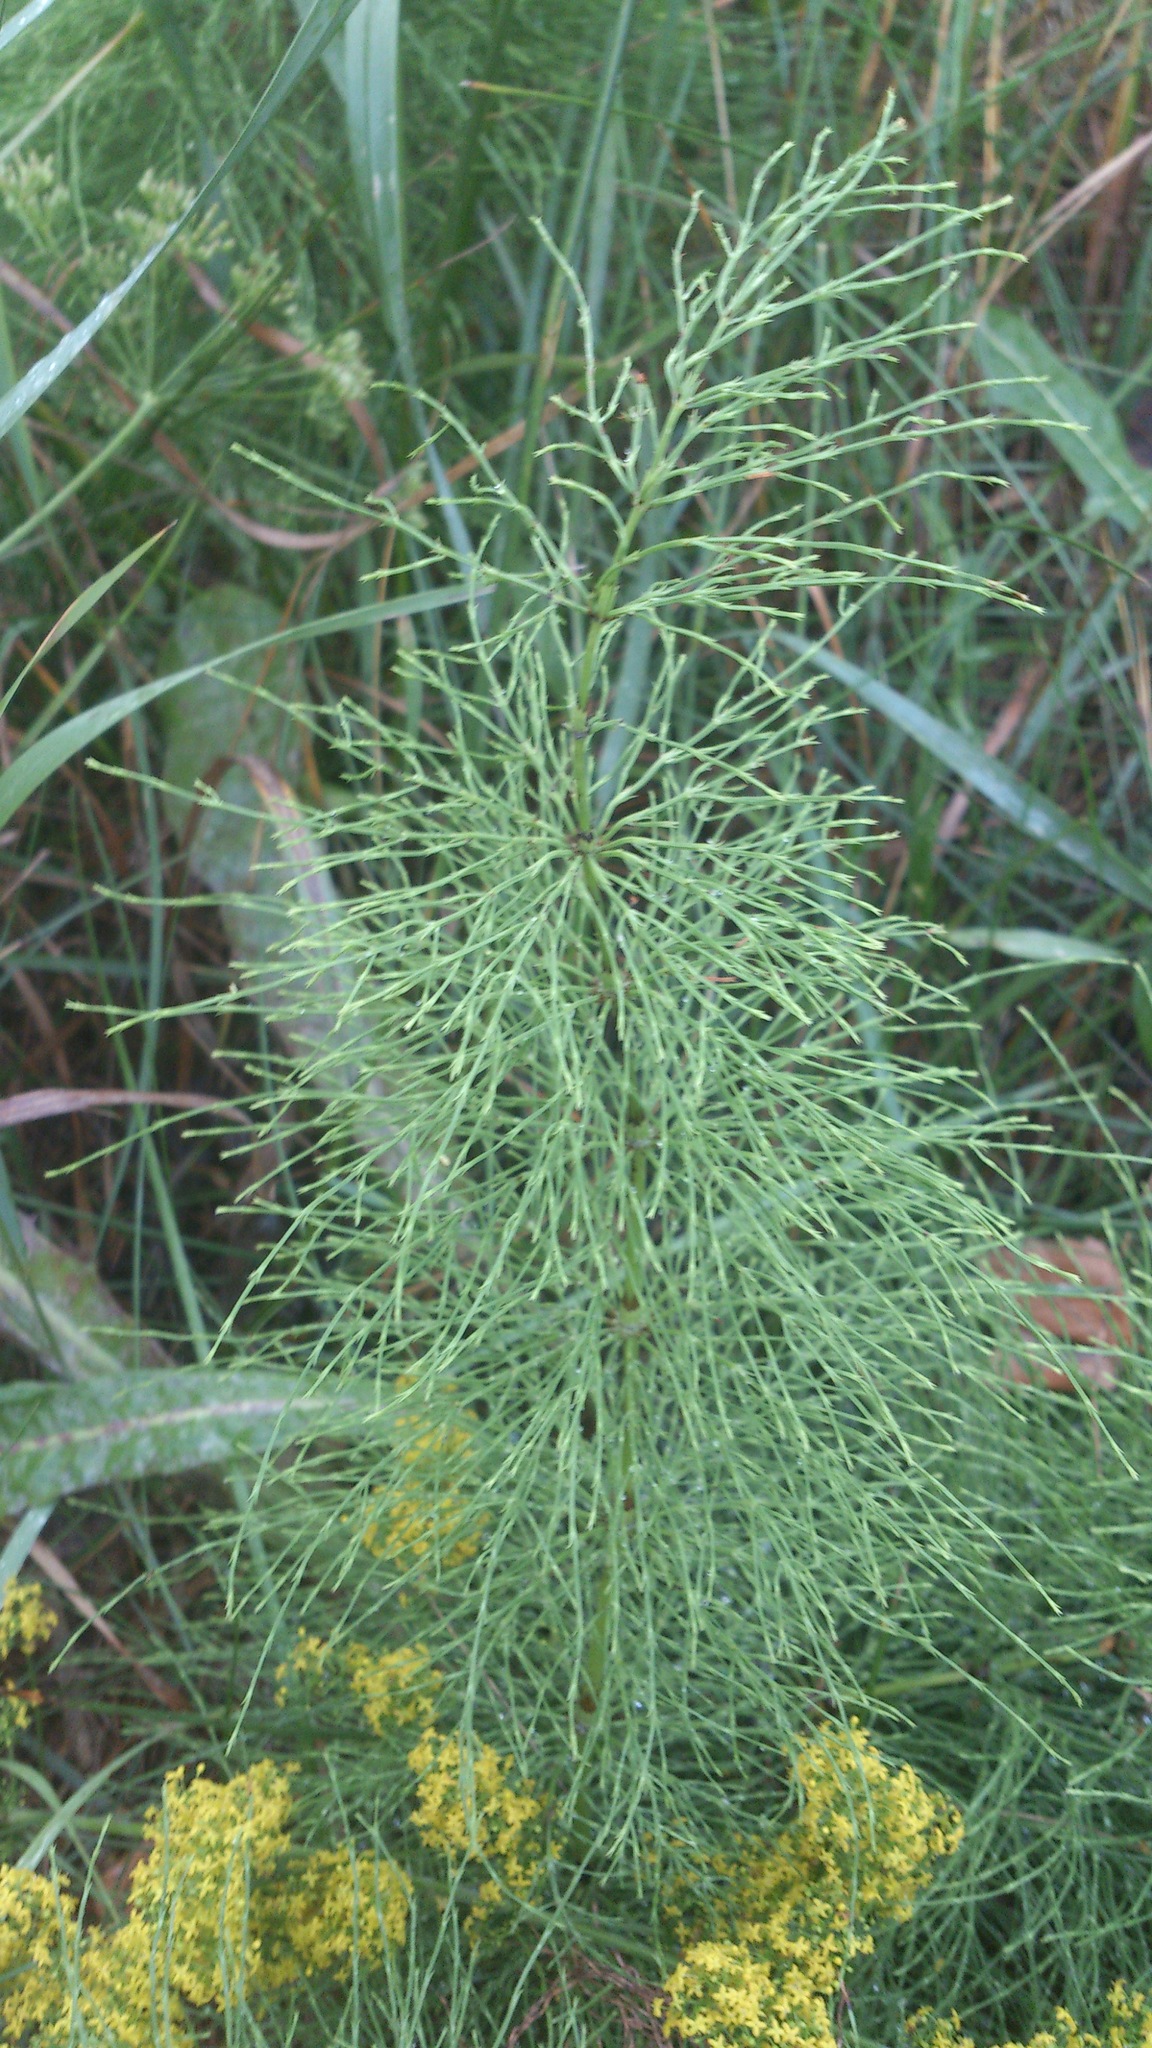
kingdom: Plantae
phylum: Tracheophyta
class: Polypodiopsida
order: Equisetales
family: Equisetaceae
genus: Equisetum
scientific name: Equisetum sylvaticum
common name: Wood horsetail
